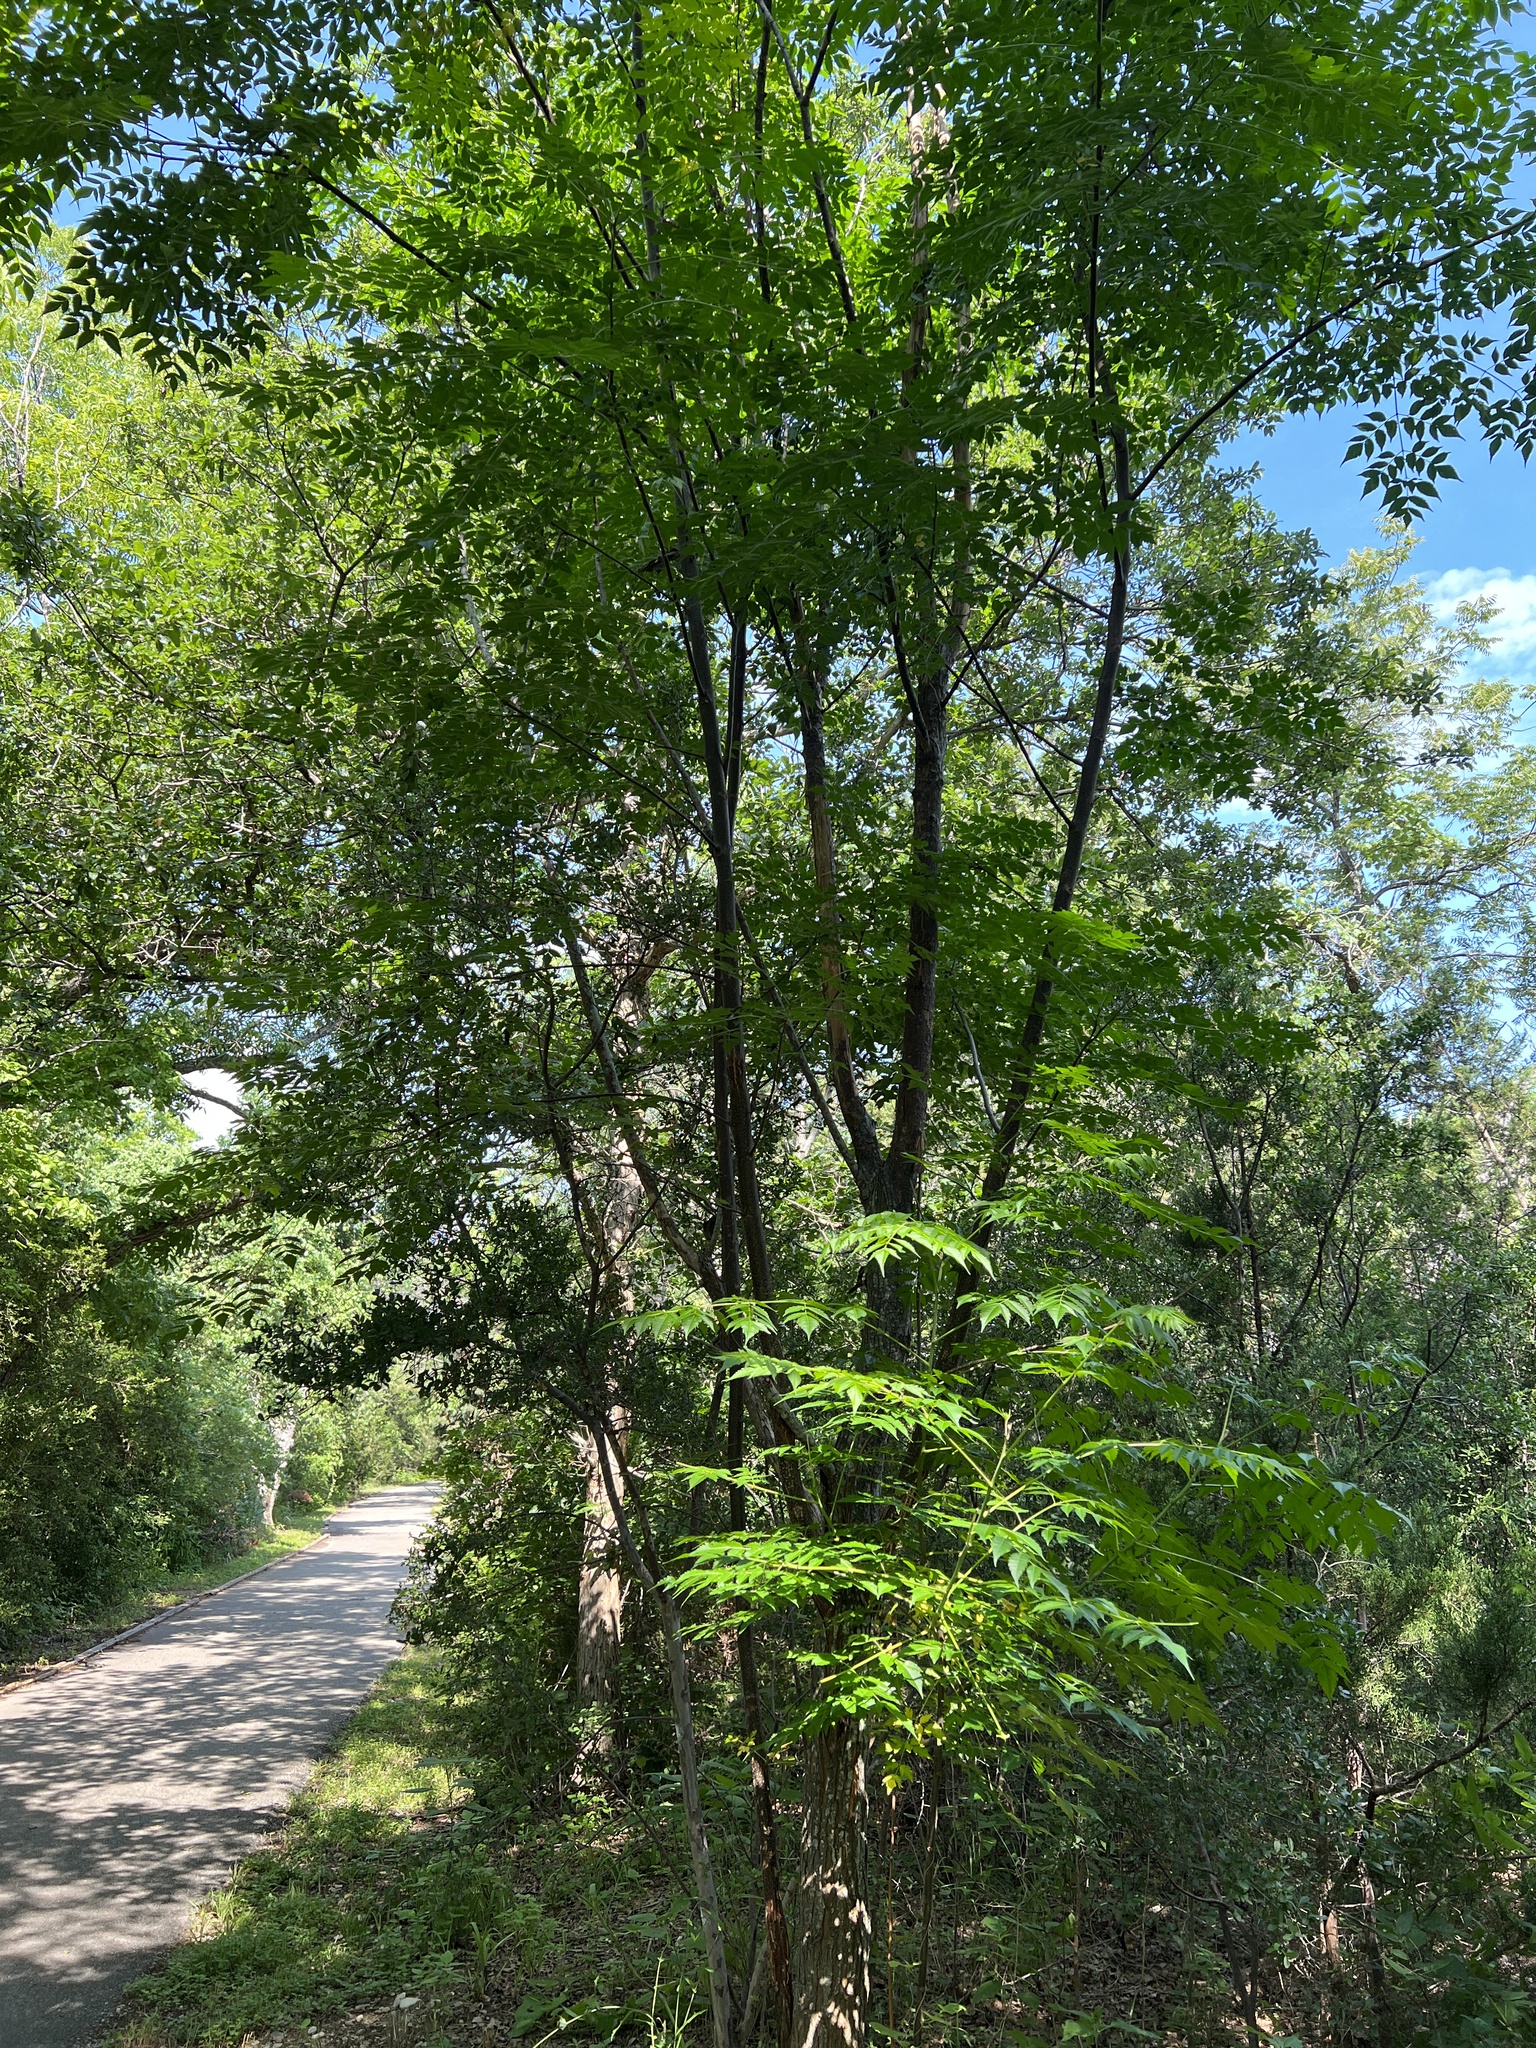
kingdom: Plantae
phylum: Tracheophyta
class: Magnoliopsida
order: Sapindales
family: Meliaceae
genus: Melia
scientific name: Melia azedarach
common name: Chinaberrytree
